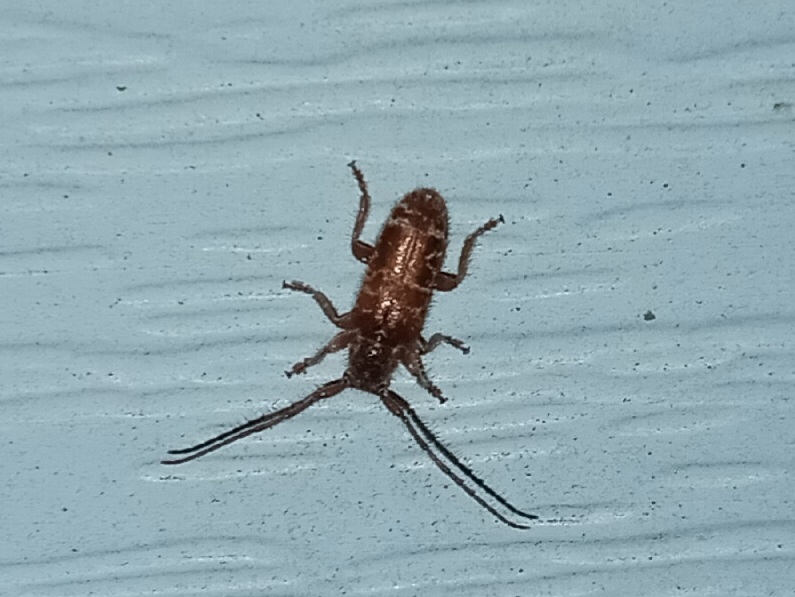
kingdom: Animalia
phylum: Arthropoda
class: Insecta
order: Coleoptera
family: Cerambycidae
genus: Eupogonius
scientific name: Eupogonius tomentosus
